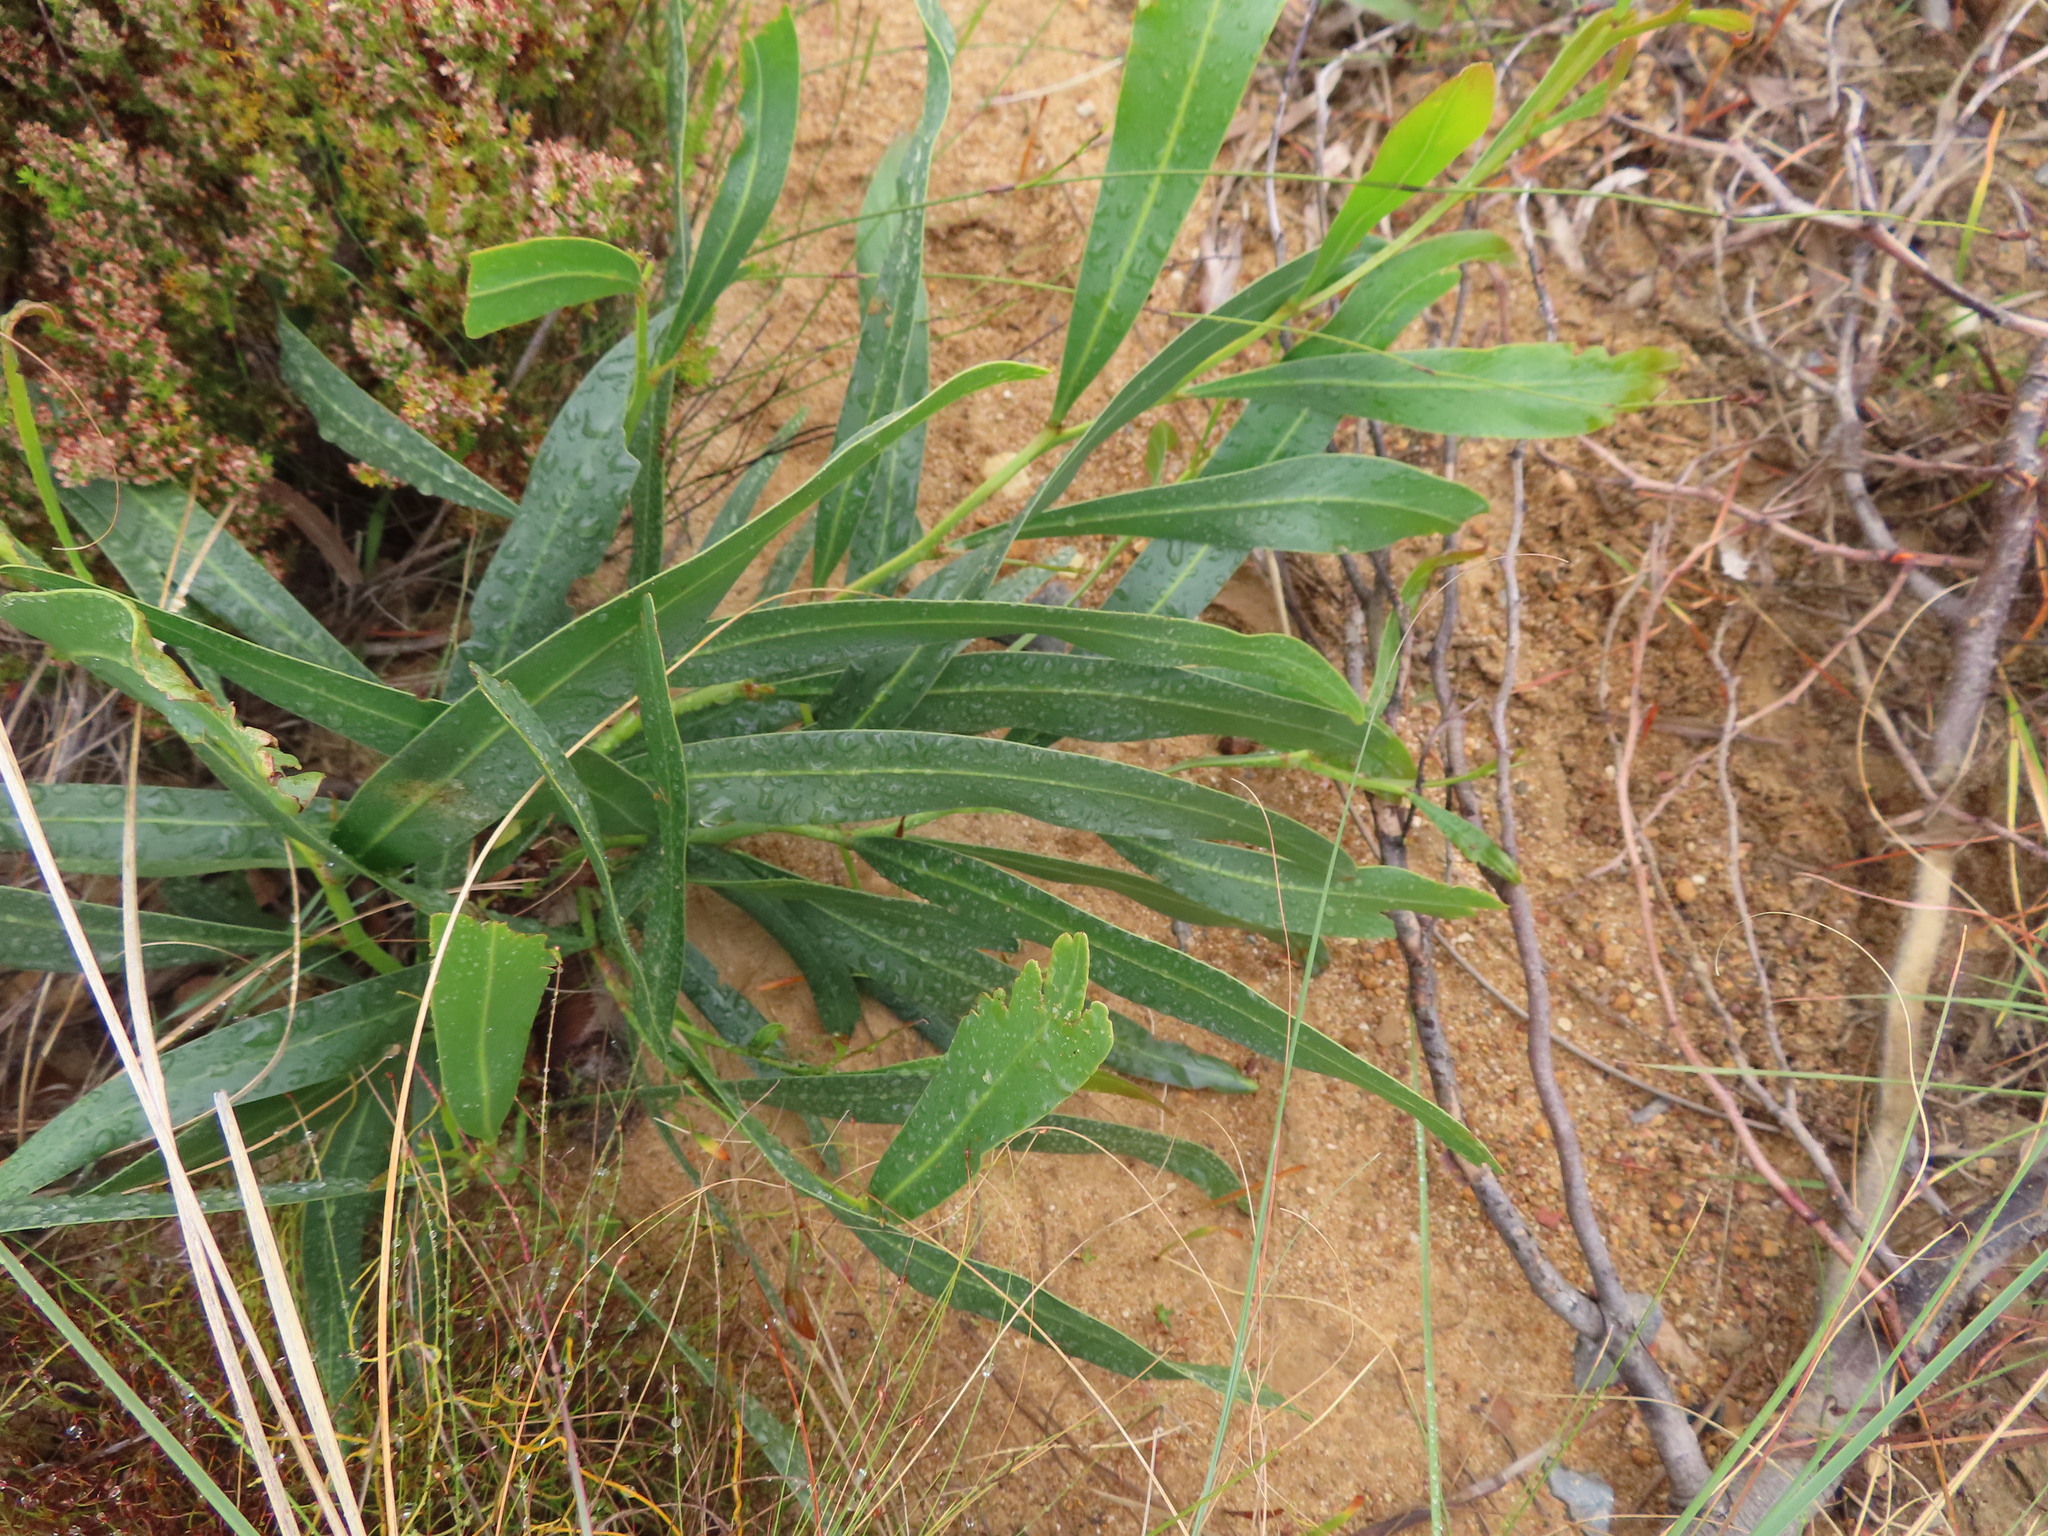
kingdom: Plantae
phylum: Tracheophyta
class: Magnoliopsida
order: Fabales
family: Fabaceae
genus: Acacia
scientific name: Acacia saligna
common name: Orange wattle
